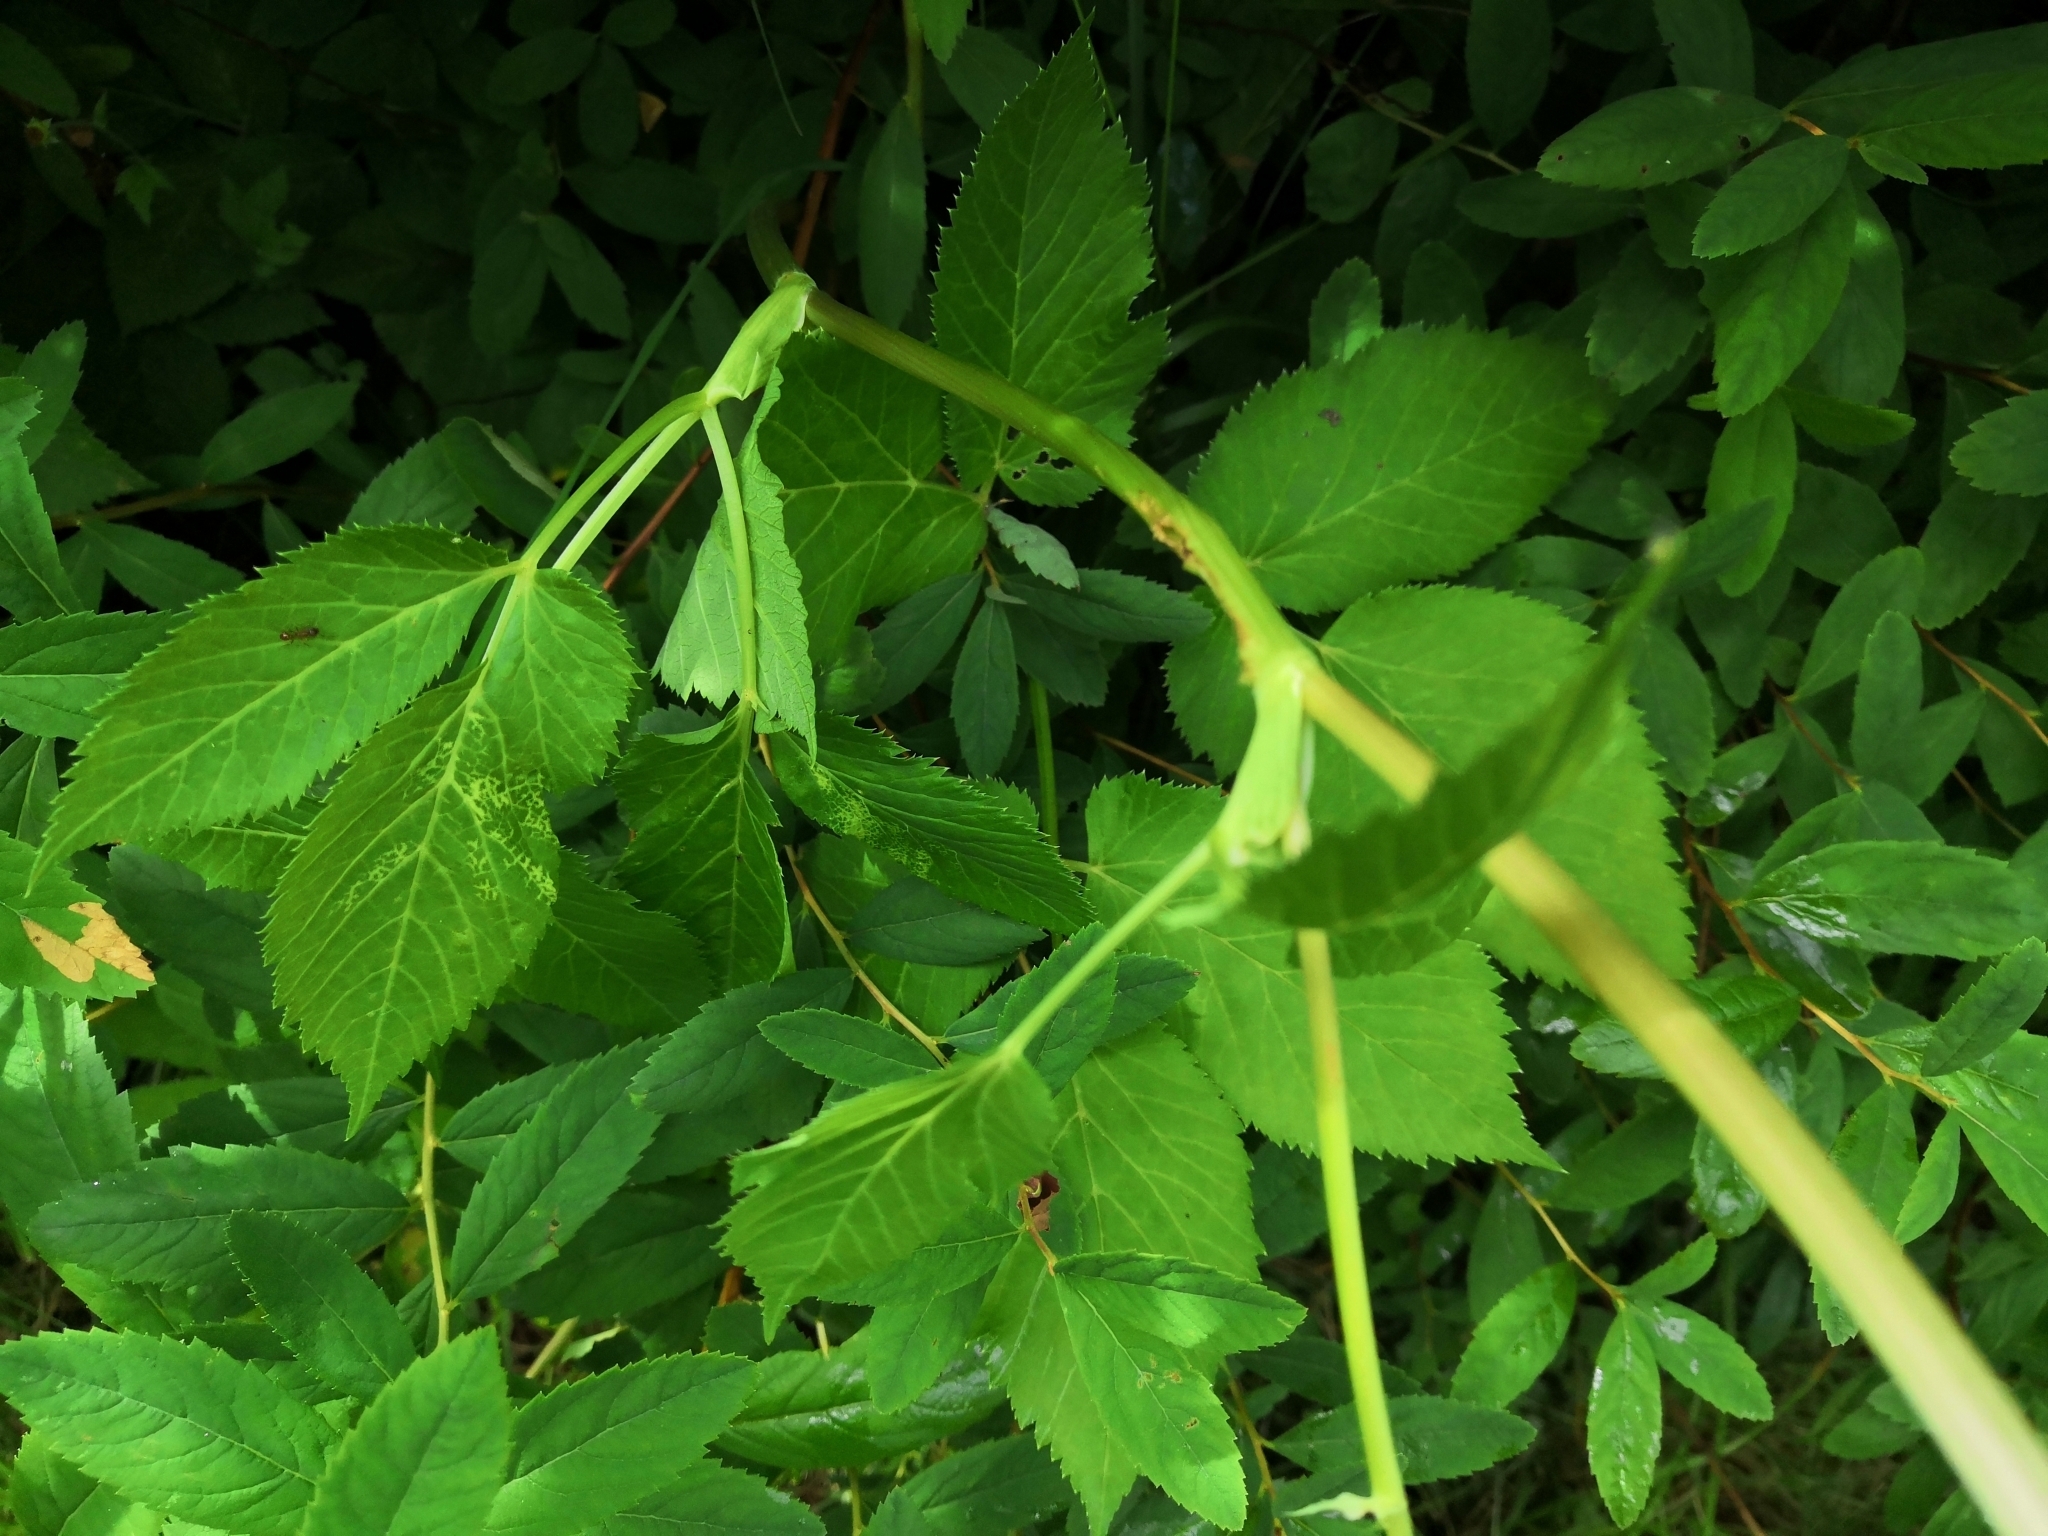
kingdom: Plantae
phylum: Tracheophyta
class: Magnoliopsida
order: Apiales
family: Apiaceae
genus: Aegopodium
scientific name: Aegopodium podagraria
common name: Ground-elder
